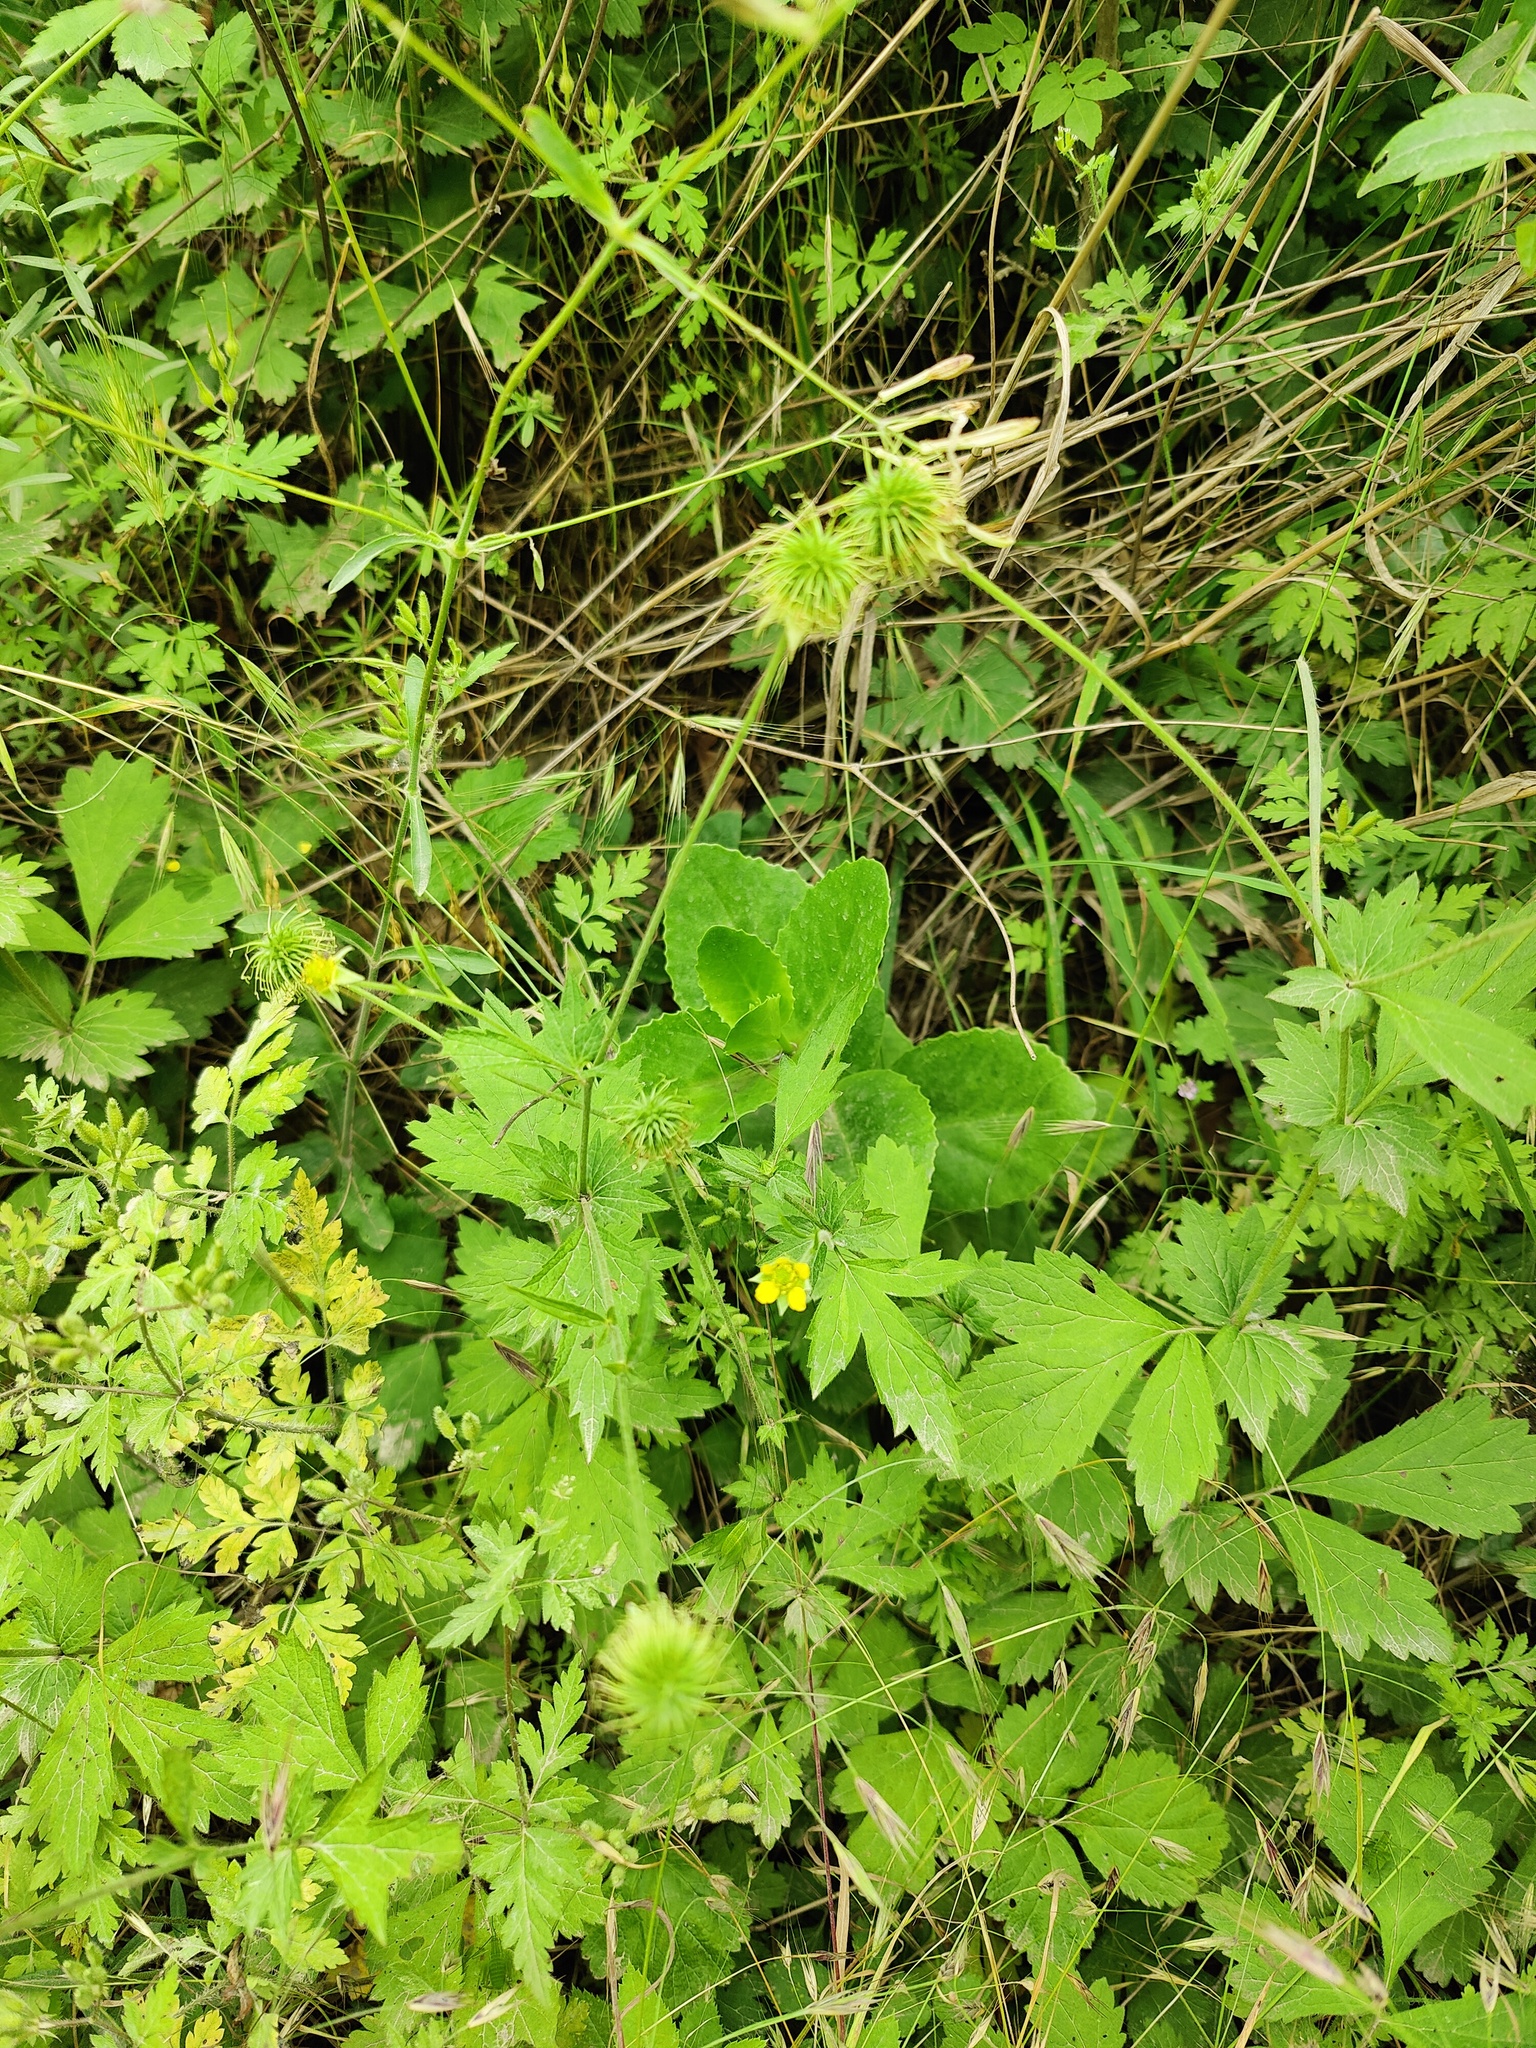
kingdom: Plantae
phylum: Tracheophyta
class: Magnoliopsida
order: Rosales
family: Rosaceae
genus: Geum
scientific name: Geum urbanum
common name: Wood avens
